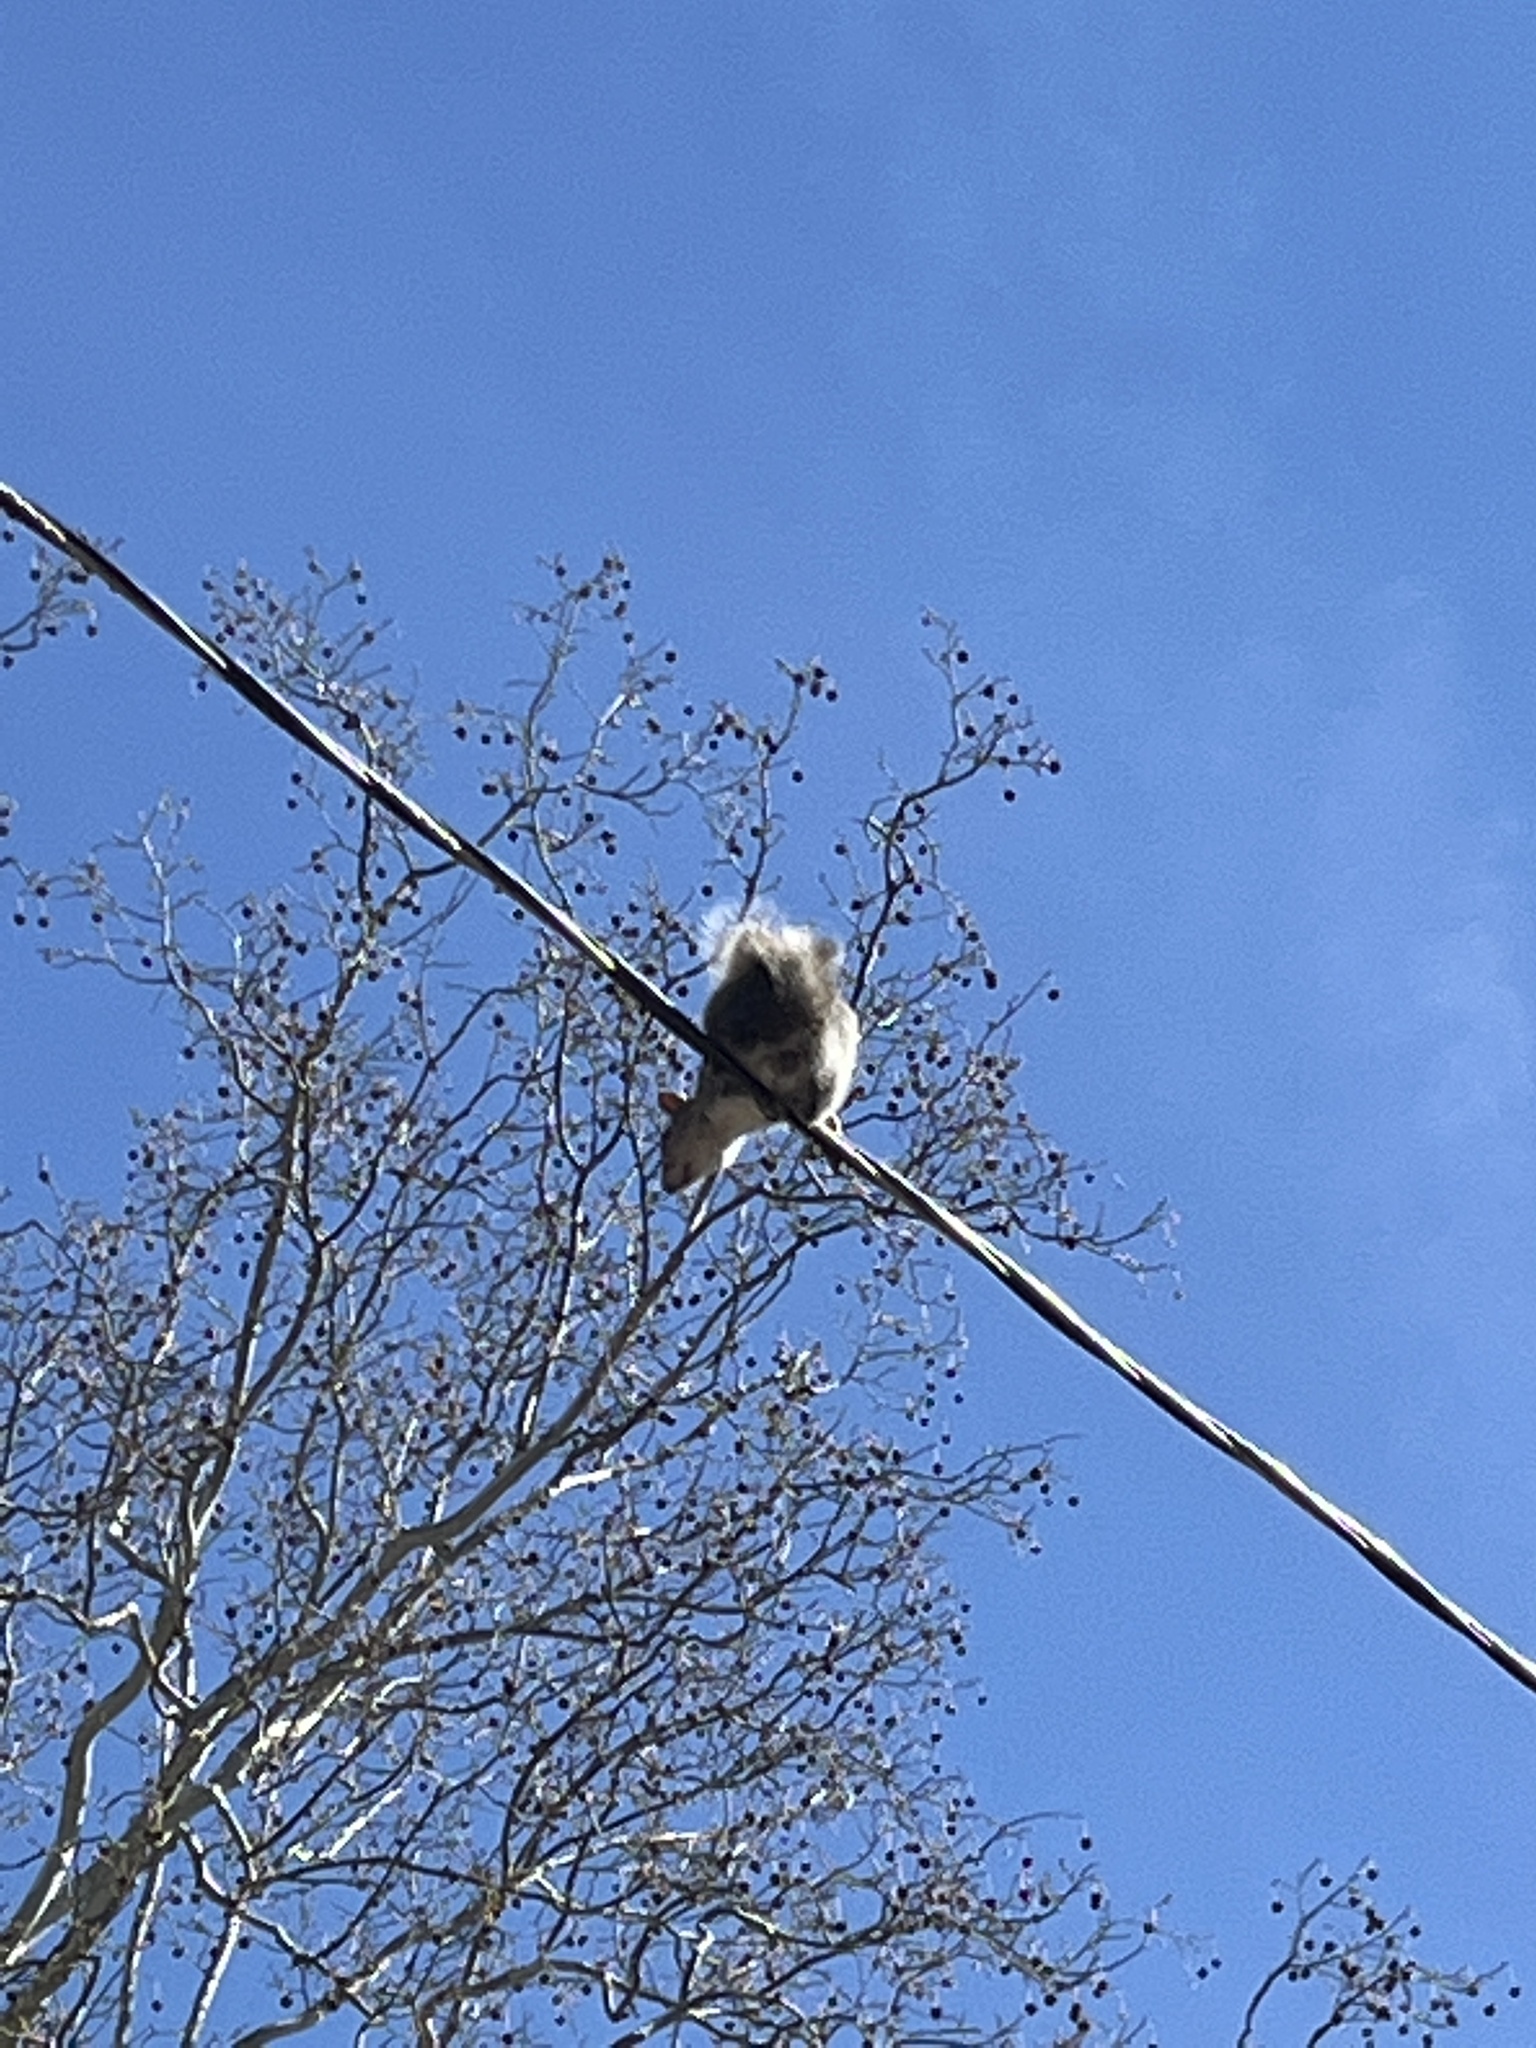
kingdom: Animalia
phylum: Chordata
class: Mammalia
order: Rodentia
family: Sciuridae
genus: Sciurus
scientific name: Sciurus carolinensis
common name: Eastern gray squirrel
